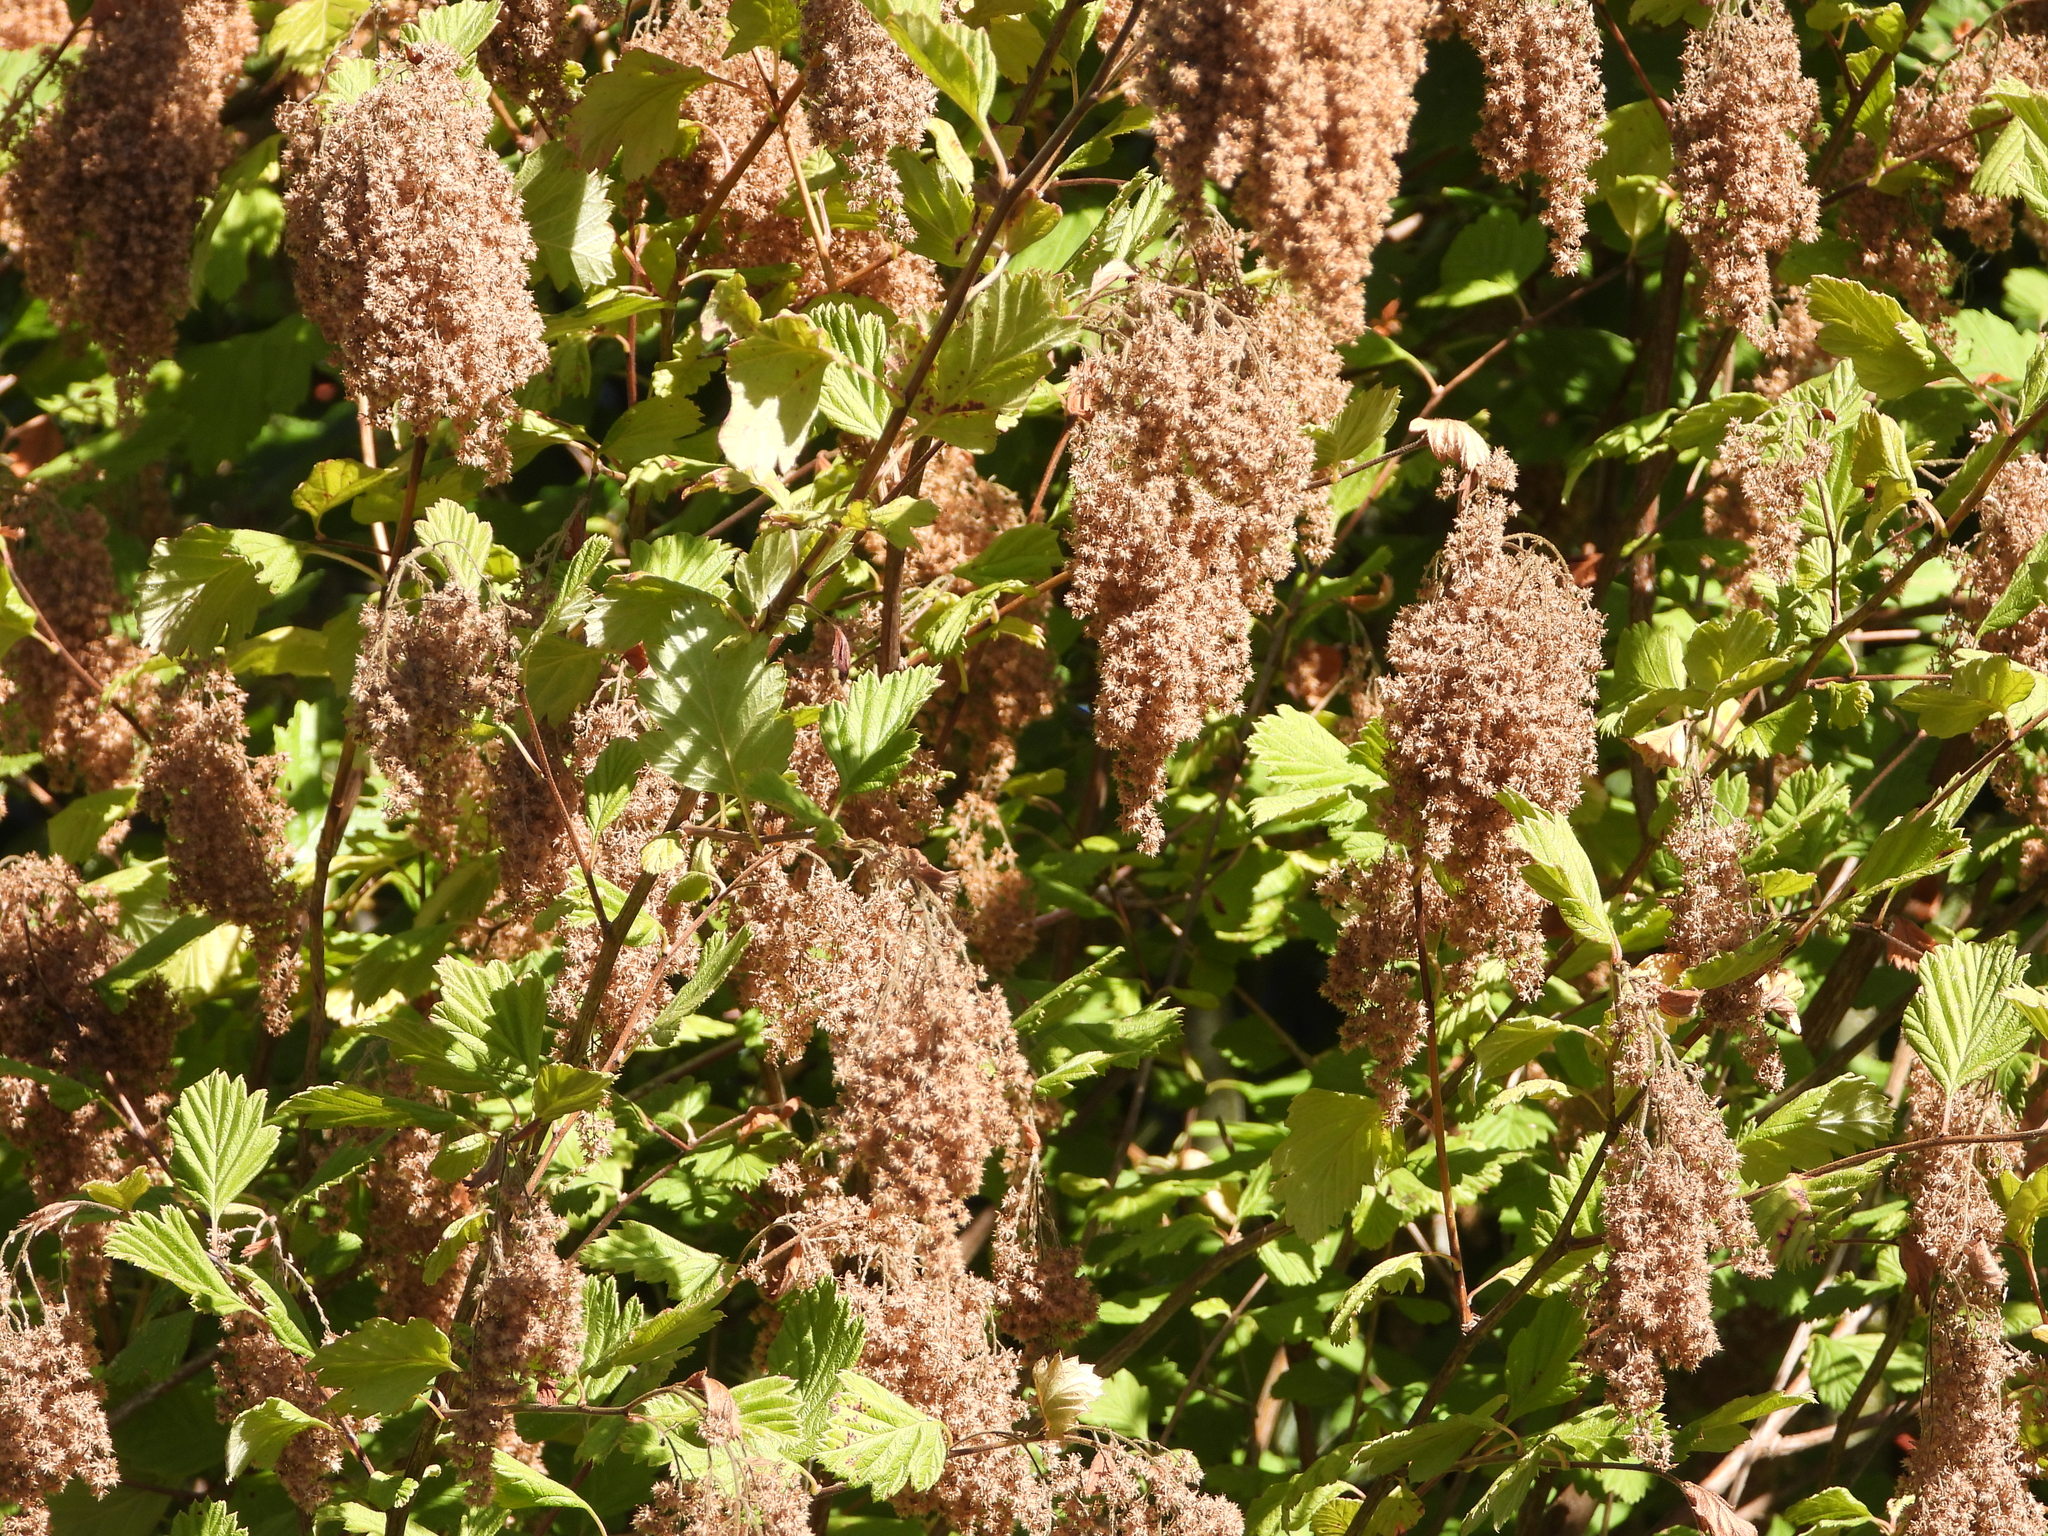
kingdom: Plantae
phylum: Tracheophyta
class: Magnoliopsida
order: Rosales
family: Rosaceae
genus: Holodiscus
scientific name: Holodiscus discolor
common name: Oceanspray
